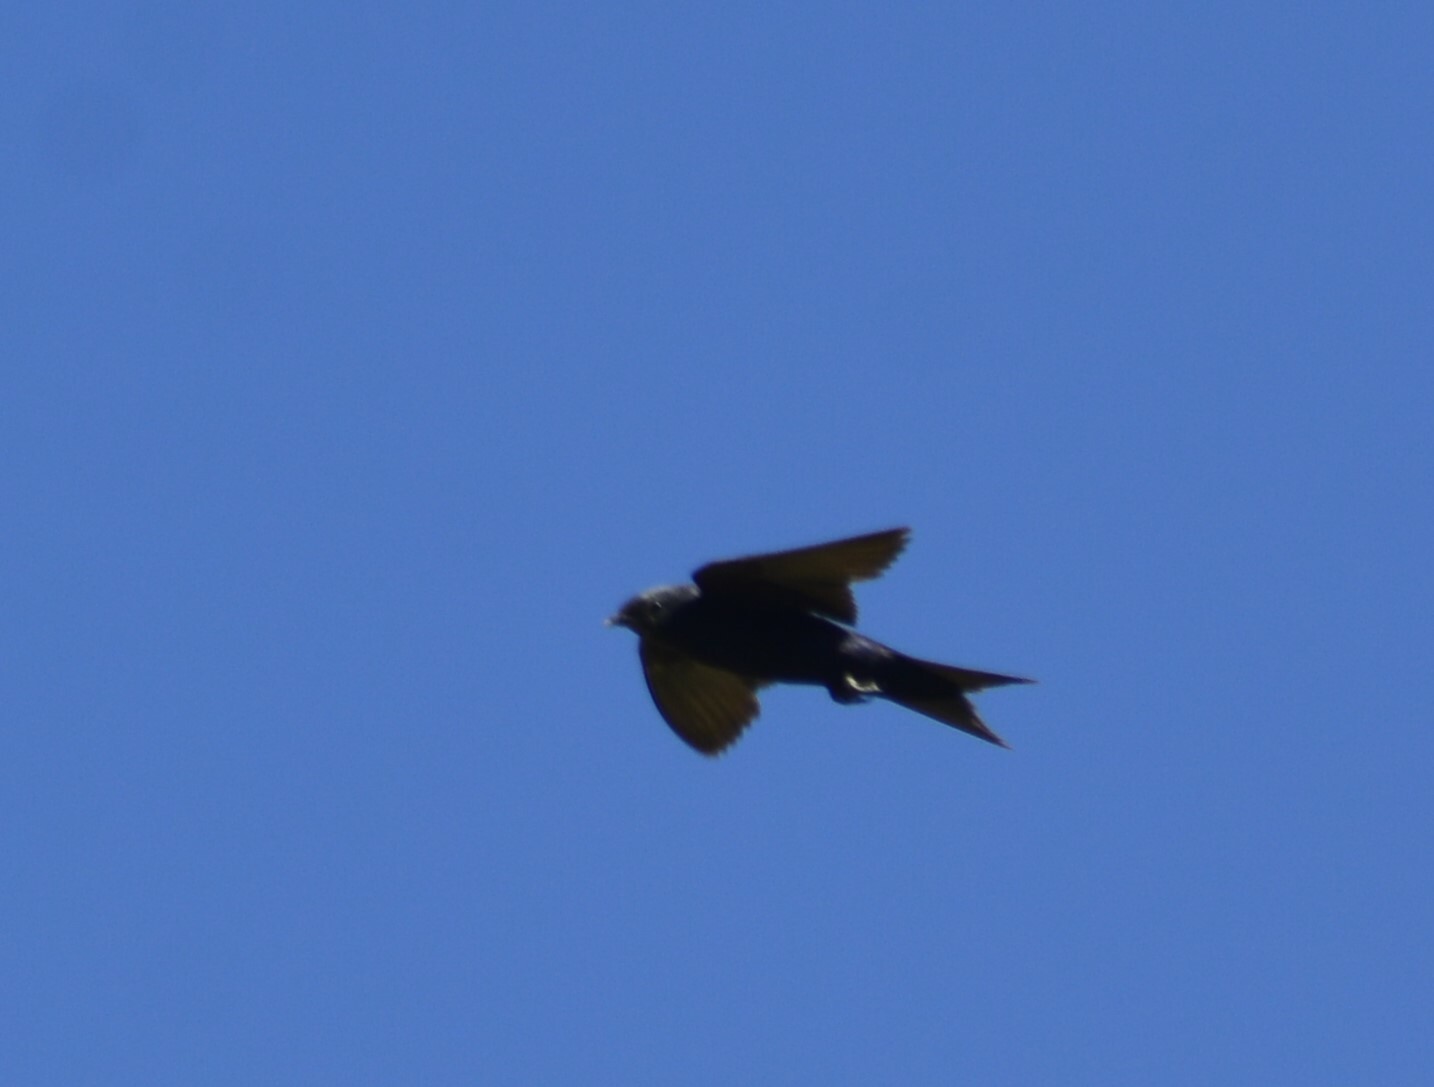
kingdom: Animalia
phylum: Chordata
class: Aves
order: Passeriformes
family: Hirundinidae
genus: Progne
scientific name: Progne elegans
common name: Southern martin
